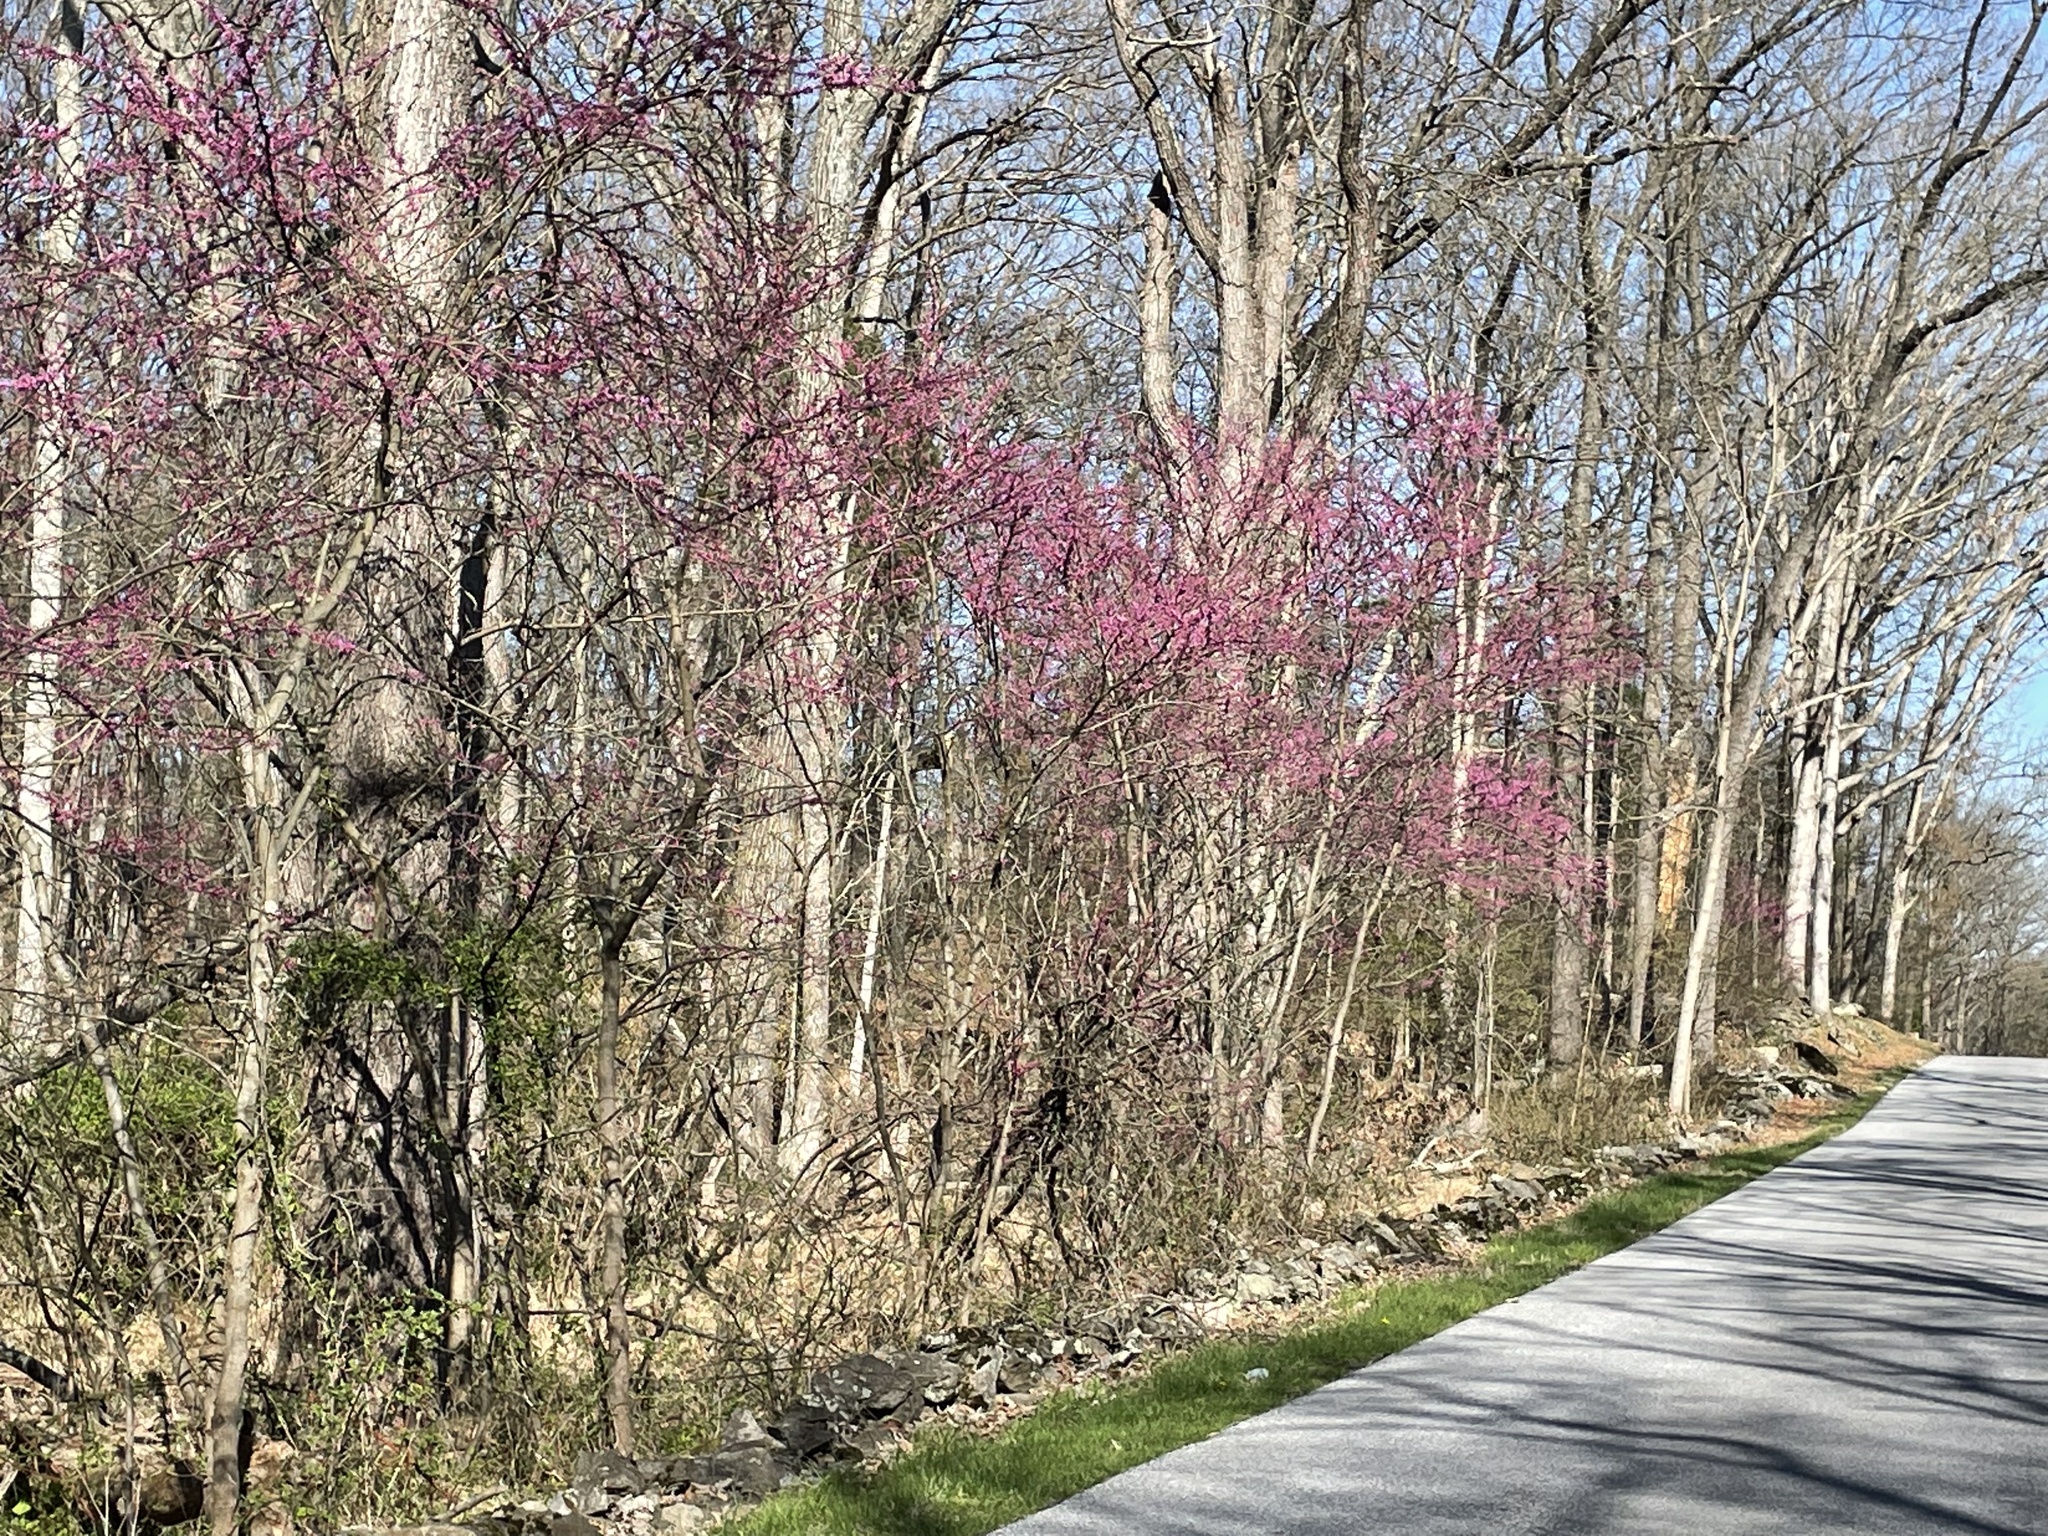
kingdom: Plantae
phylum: Tracheophyta
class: Magnoliopsida
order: Fabales
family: Fabaceae
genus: Cercis
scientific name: Cercis canadensis
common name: Eastern redbud
